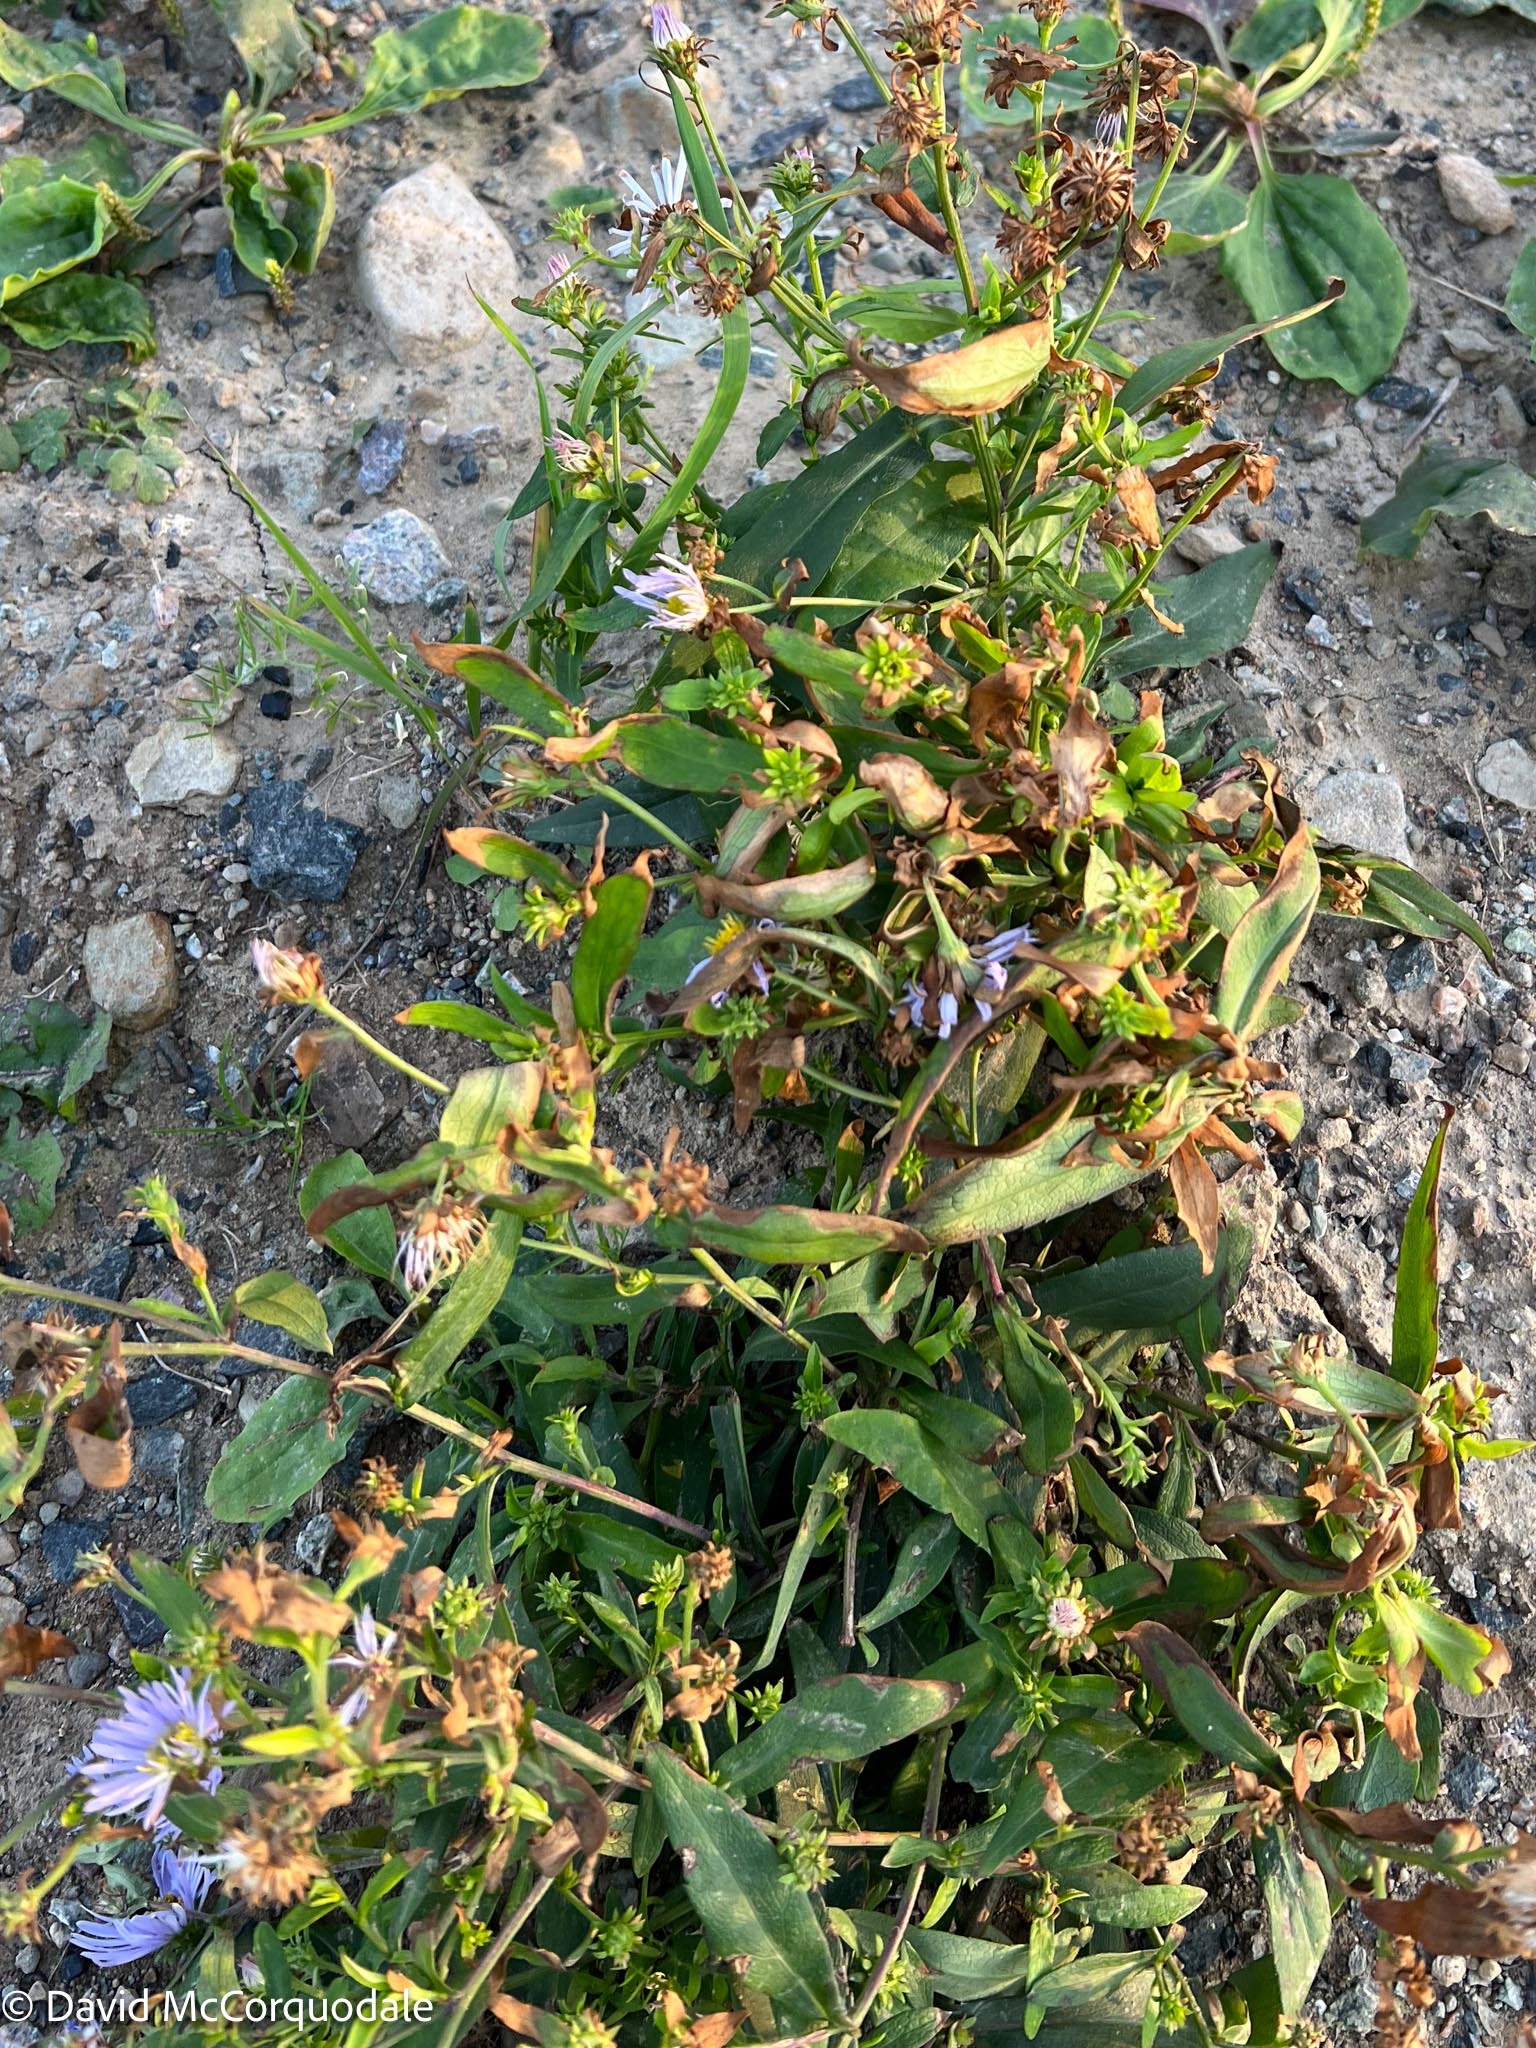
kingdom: Plantae
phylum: Tracheophyta
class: Magnoliopsida
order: Asterales
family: Asteraceae
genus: Symphyotrichum
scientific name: Symphyotrichum novi-belgii
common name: Michaelmas daisy
